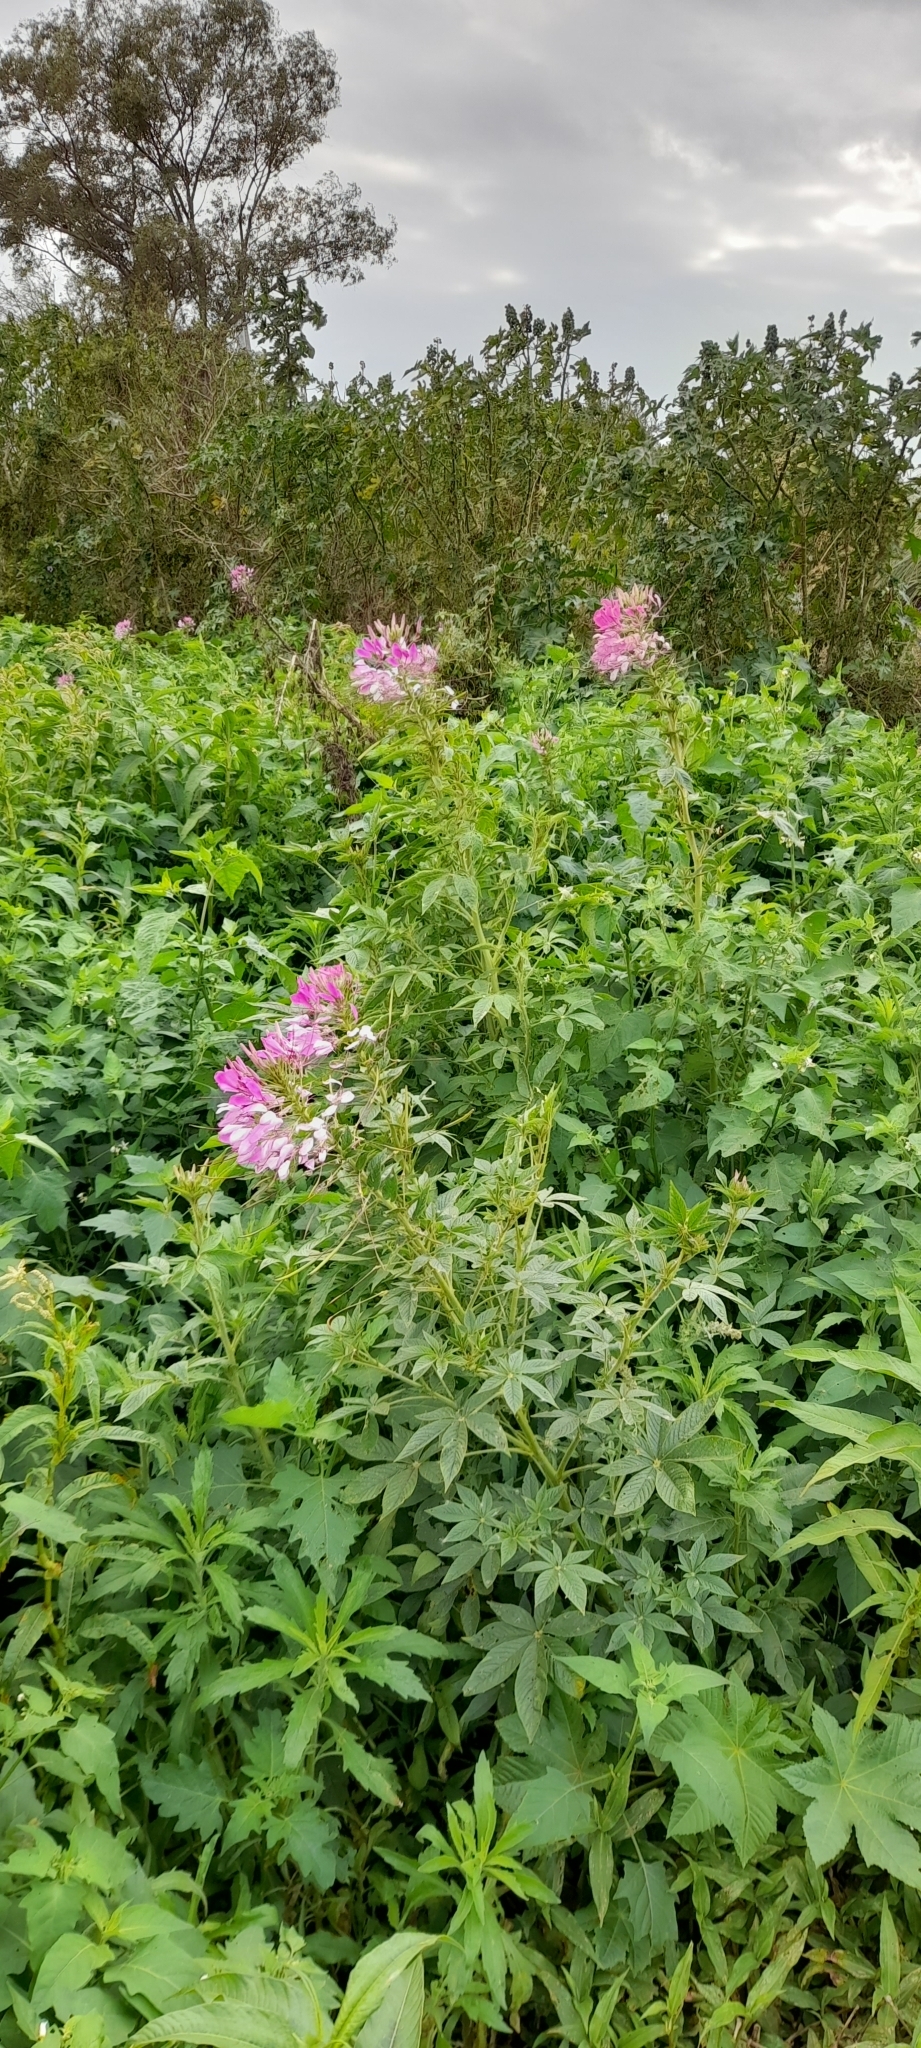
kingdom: Plantae
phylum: Tracheophyta
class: Magnoliopsida
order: Brassicales
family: Cleomaceae
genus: Tarenaya
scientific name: Tarenaya houtteana
